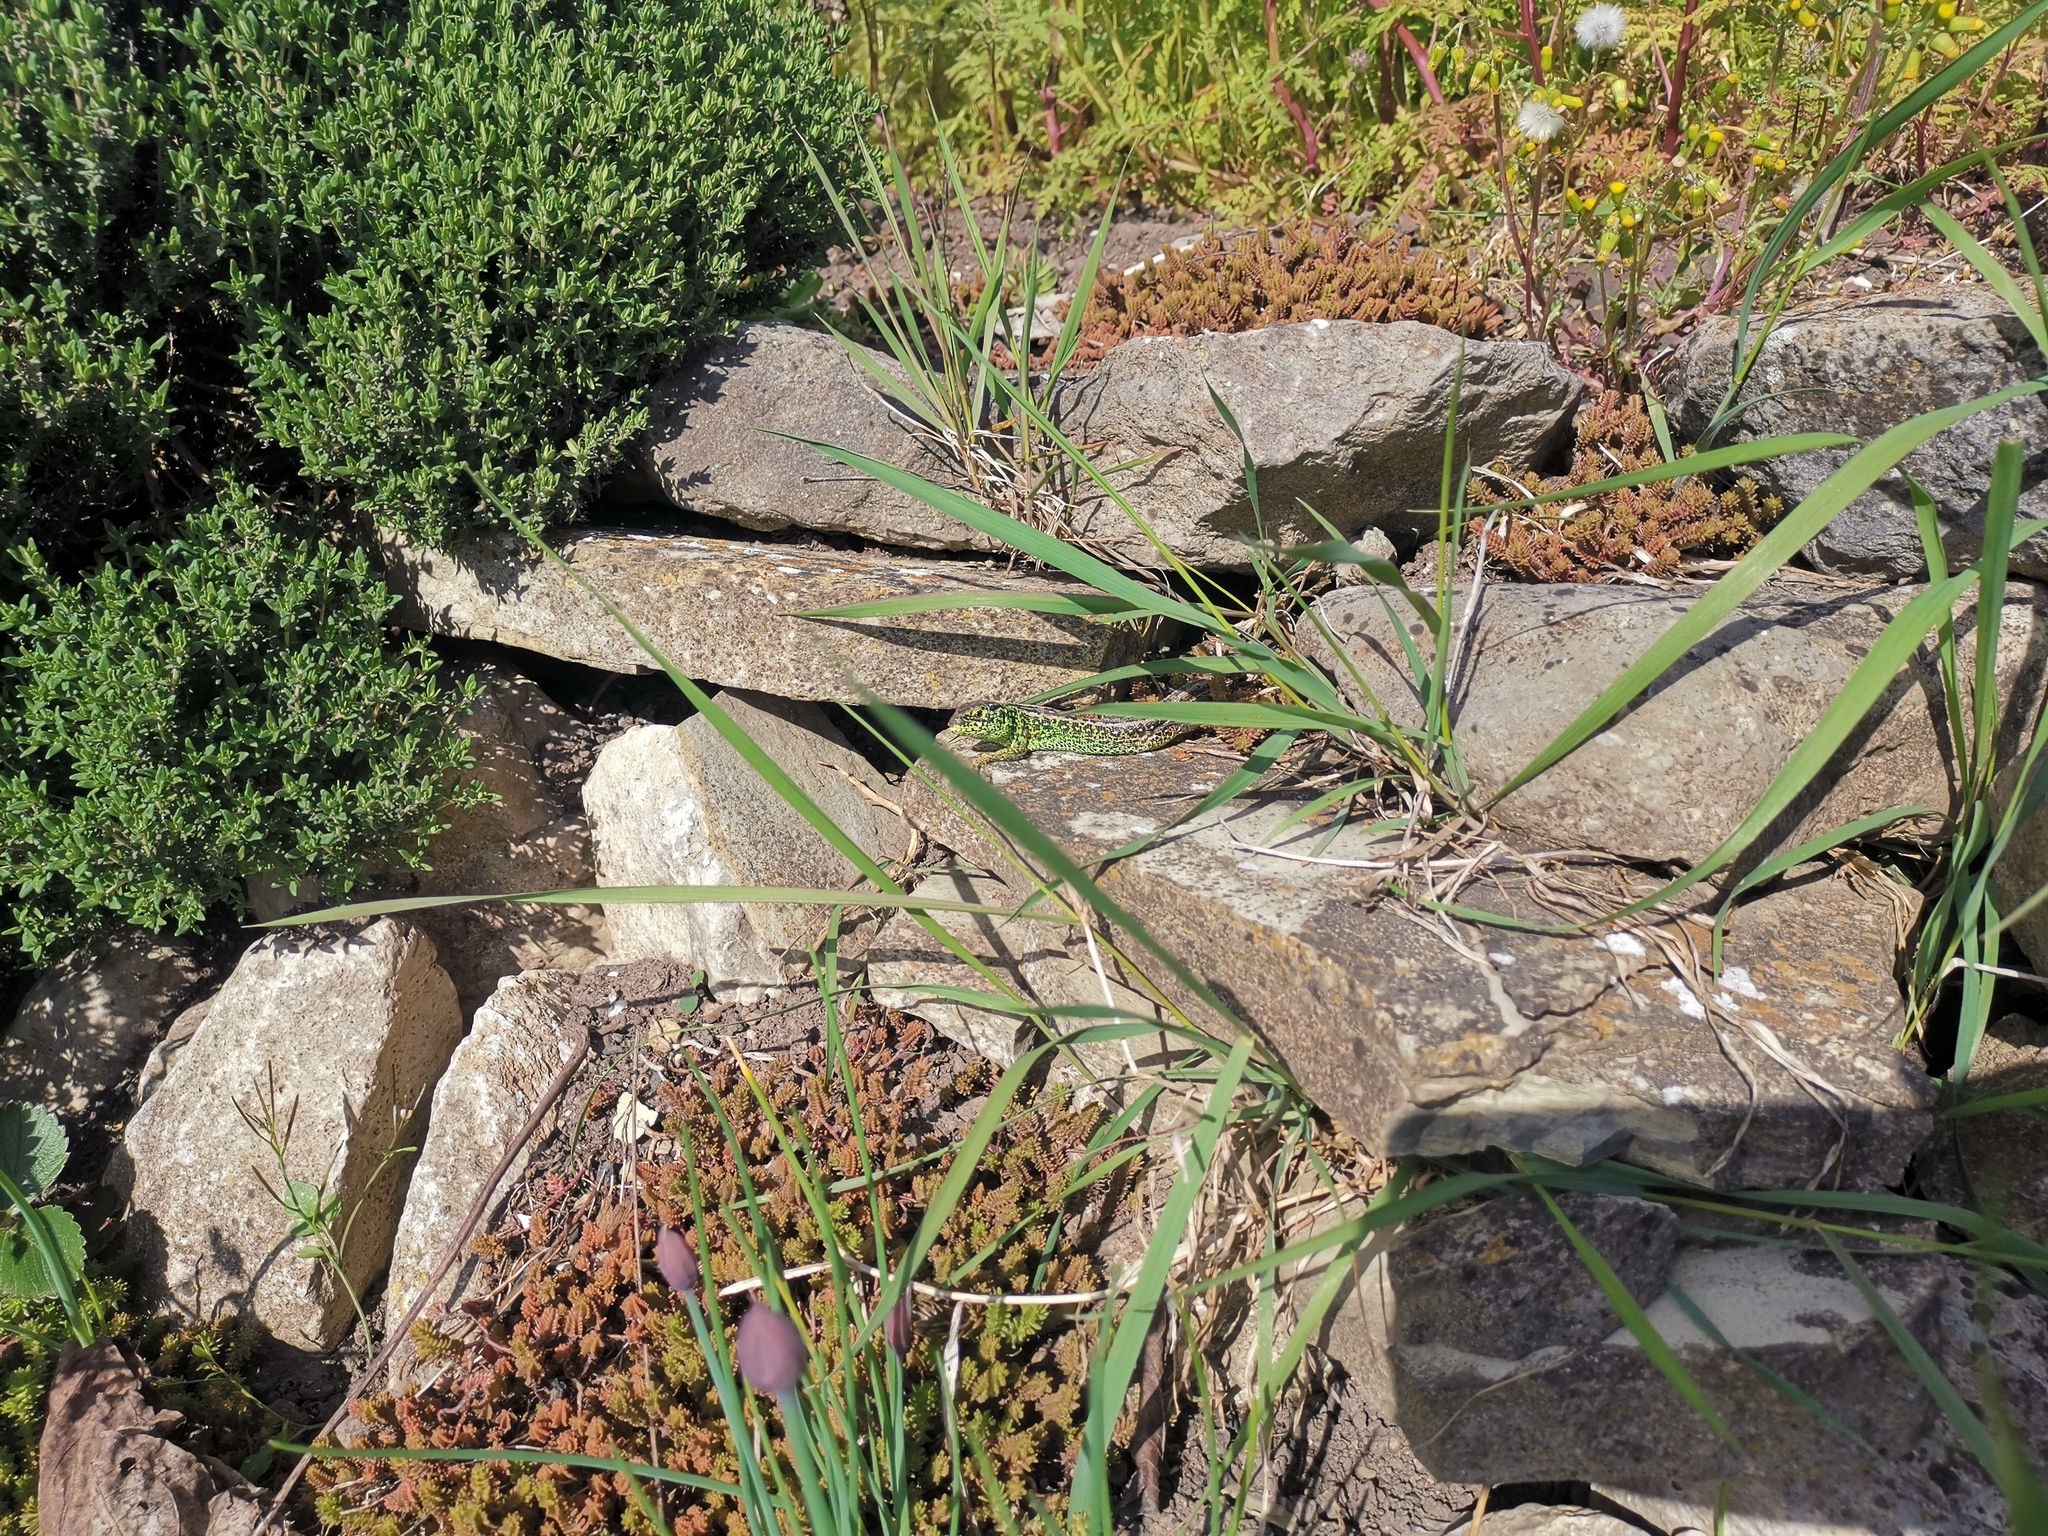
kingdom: Animalia
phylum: Chordata
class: Squamata
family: Lacertidae
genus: Lacerta
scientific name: Lacerta agilis
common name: Sand lizard
